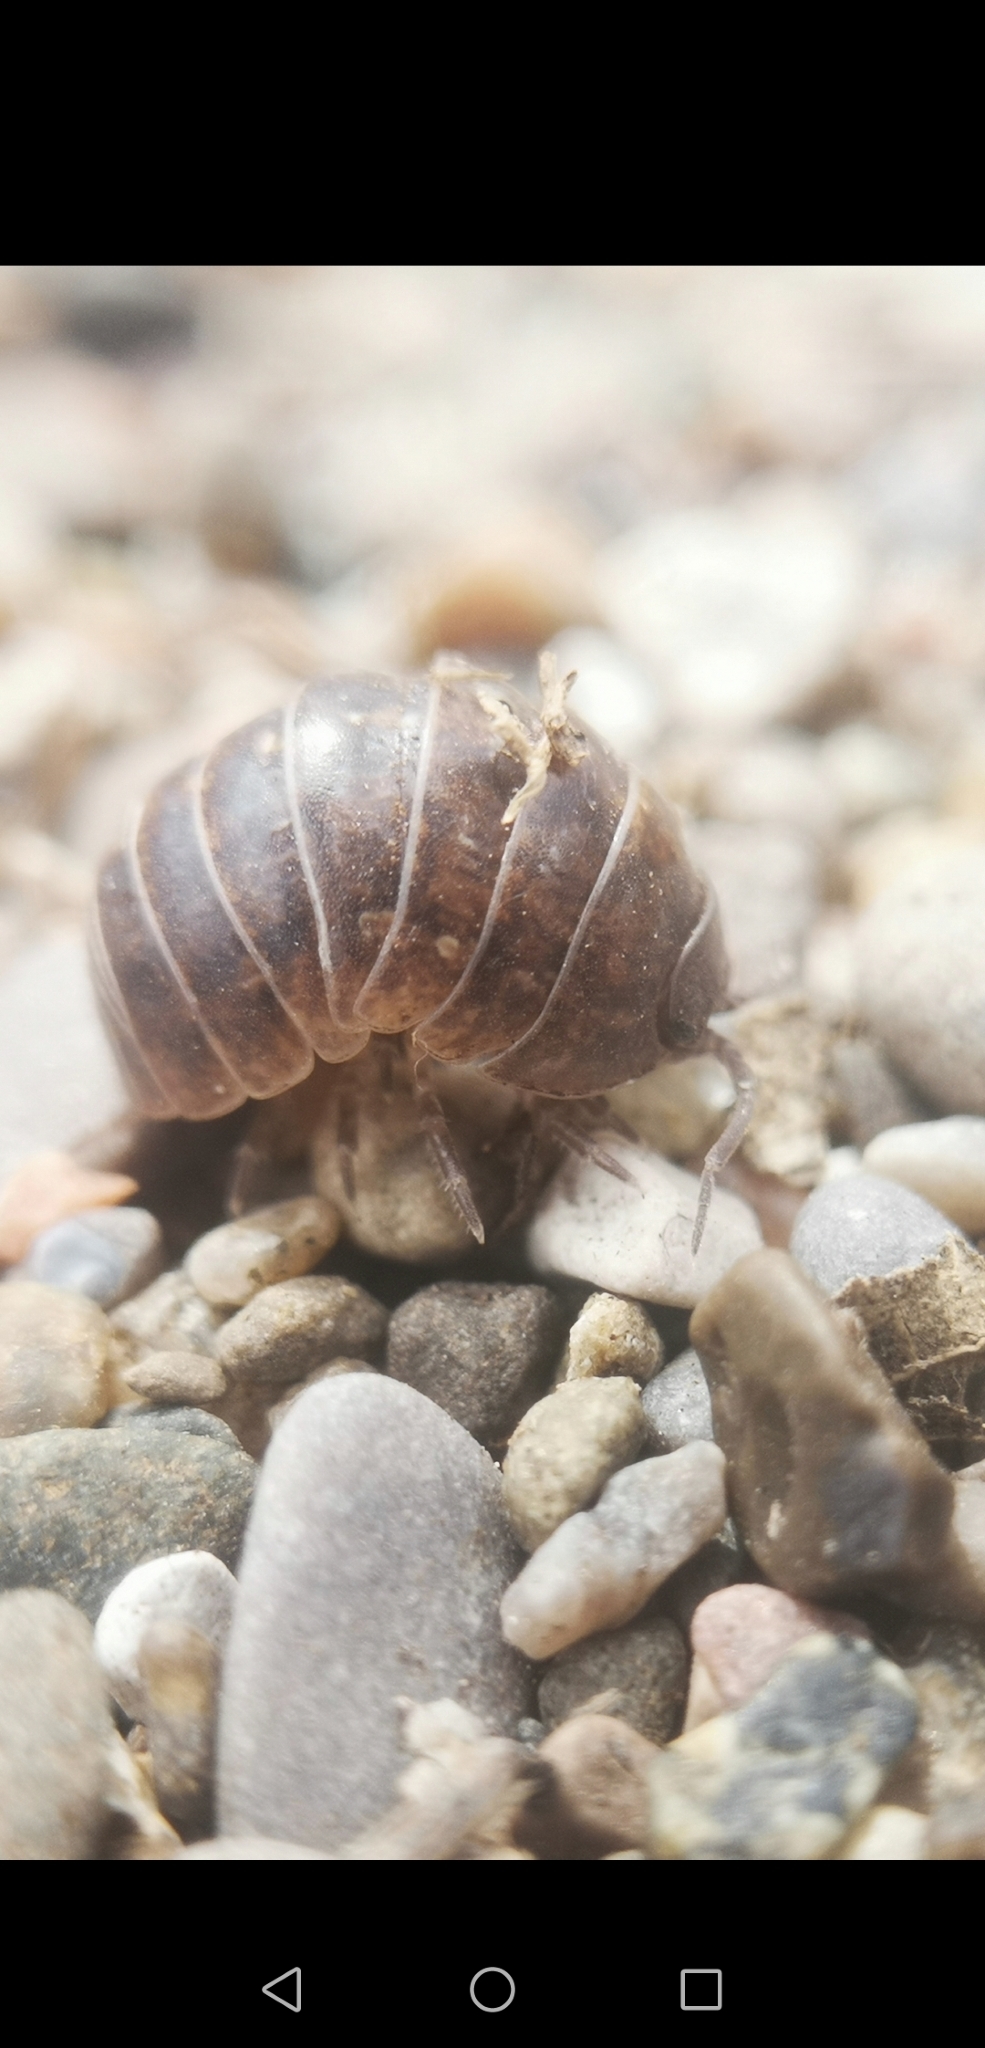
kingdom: Animalia
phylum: Arthropoda
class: Malacostraca
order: Isopoda
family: Armadillidiidae
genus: Armadillidium
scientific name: Armadillidium vulgare
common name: Common pill woodlouse
